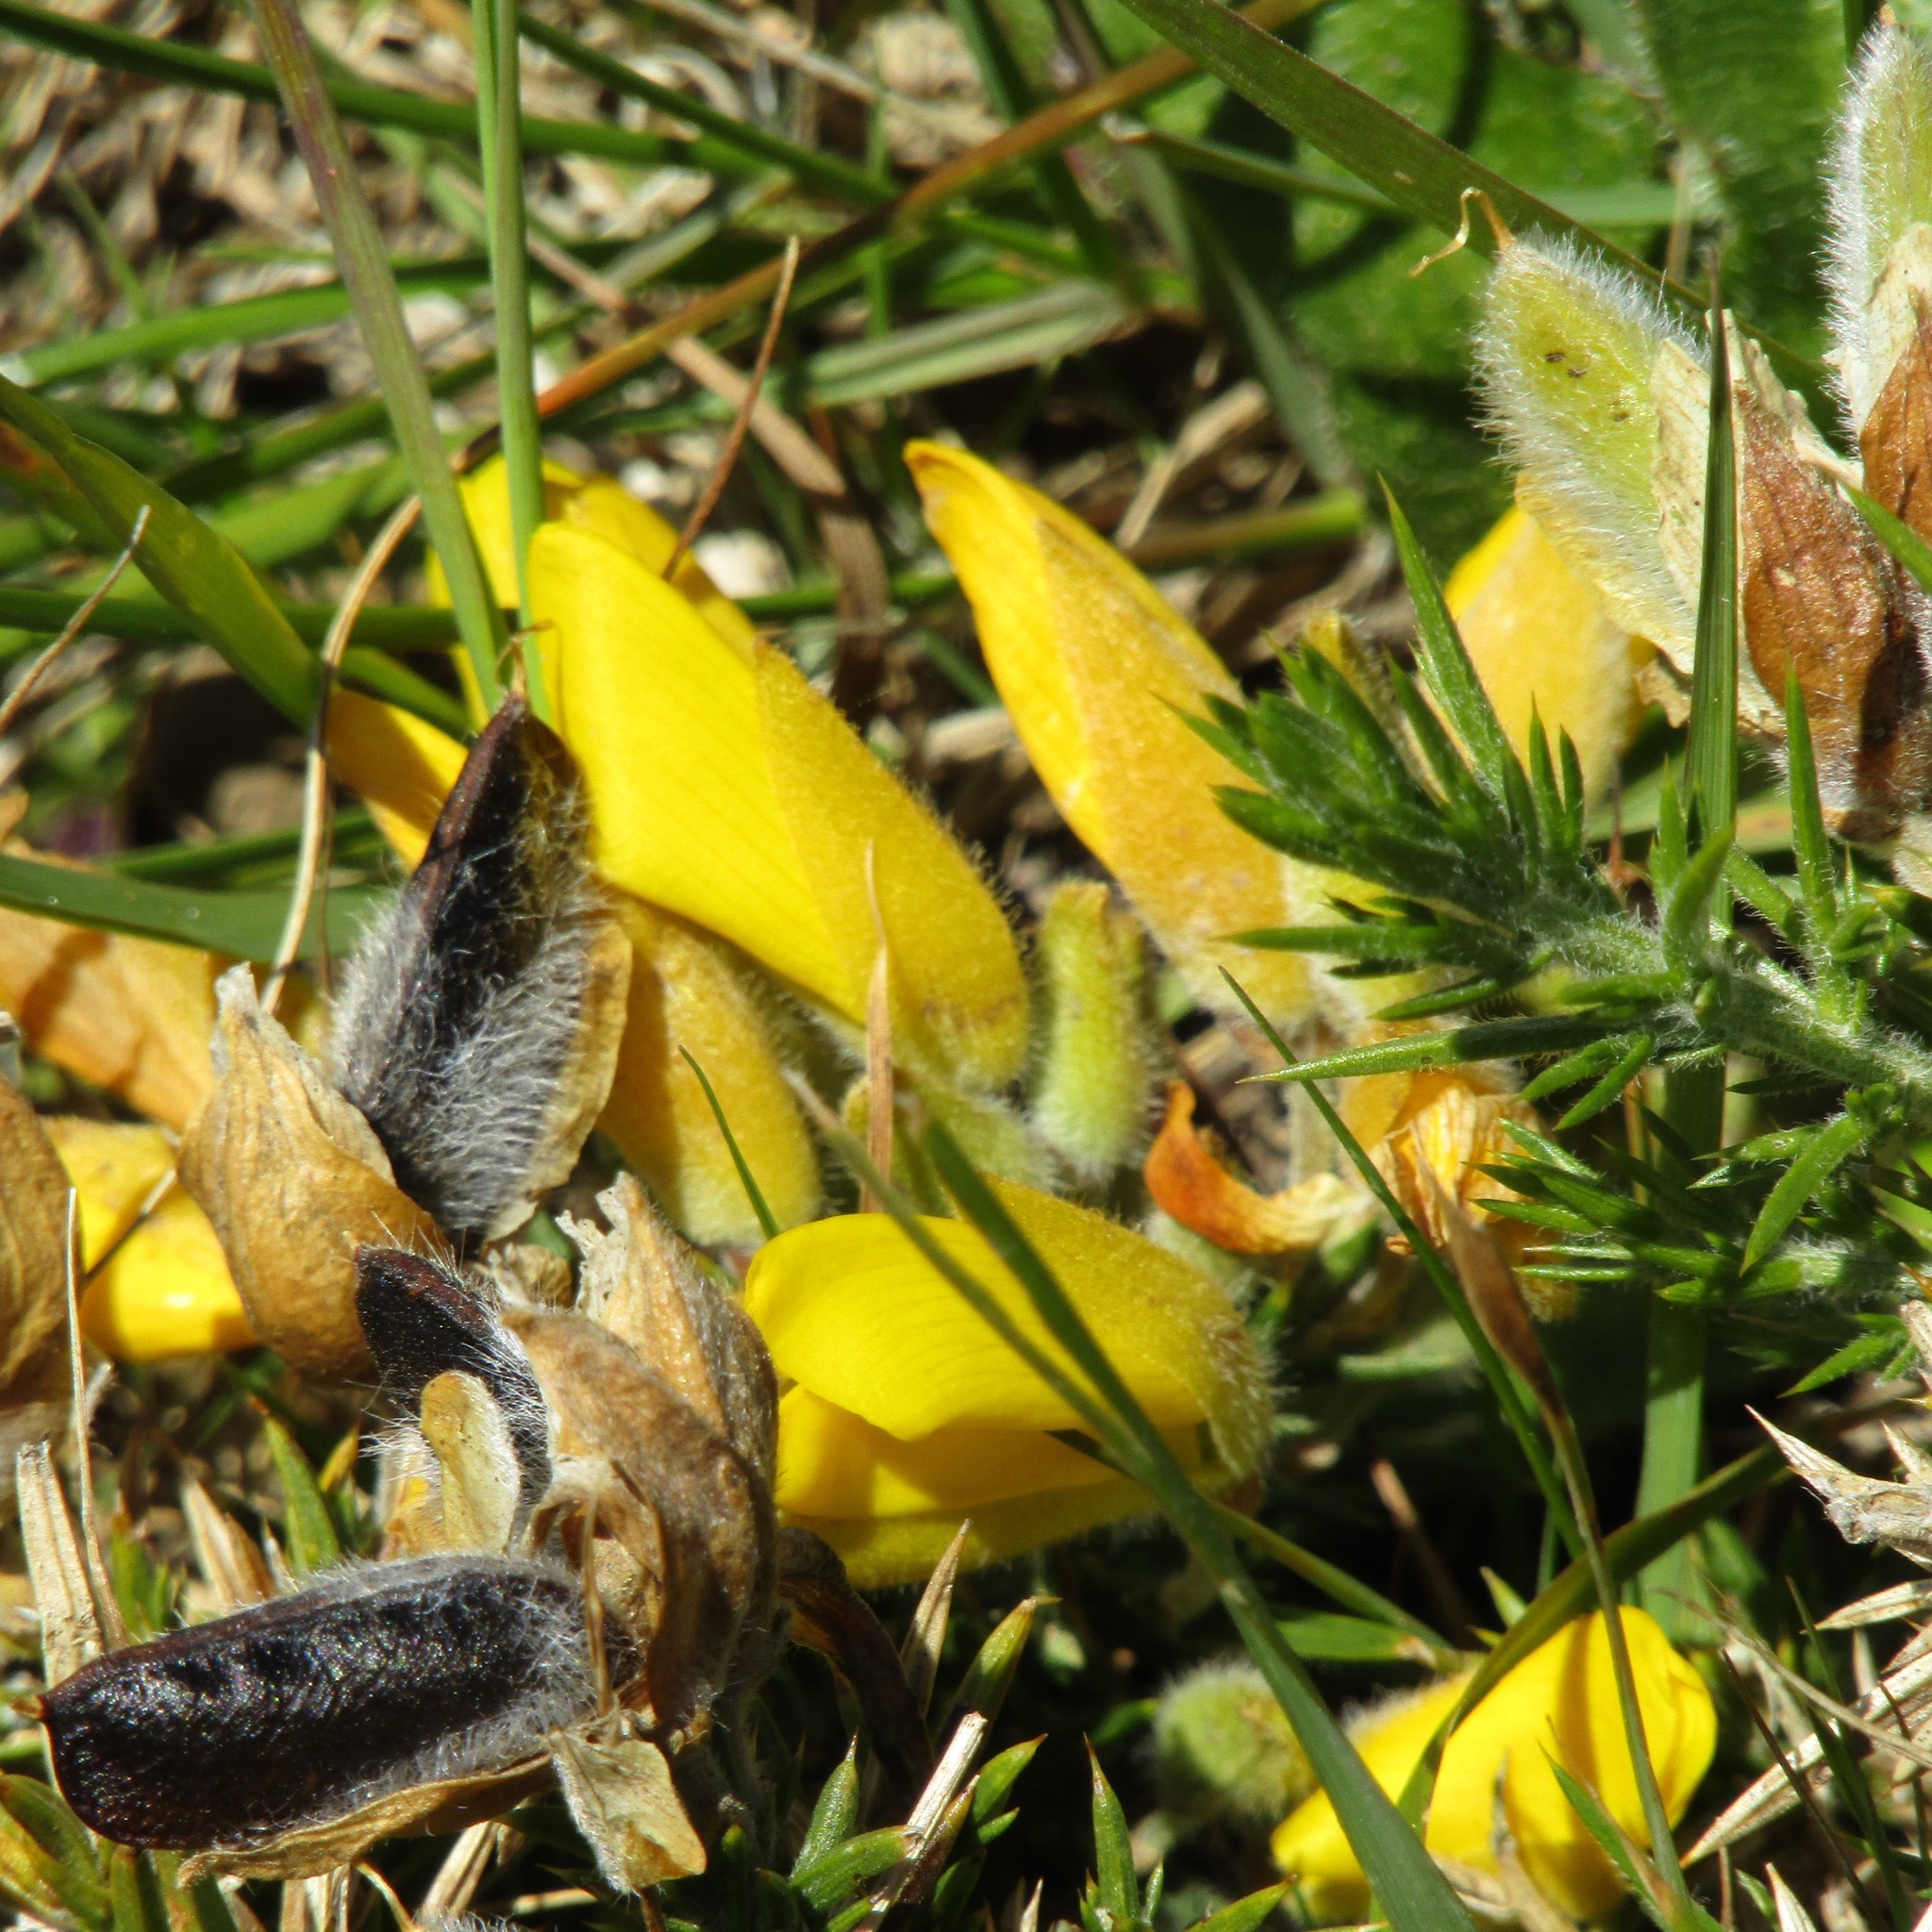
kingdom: Plantae
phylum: Tracheophyta
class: Magnoliopsida
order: Fabales
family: Fabaceae
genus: Ulex
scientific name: Ulex europaeus
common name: Common gorse
